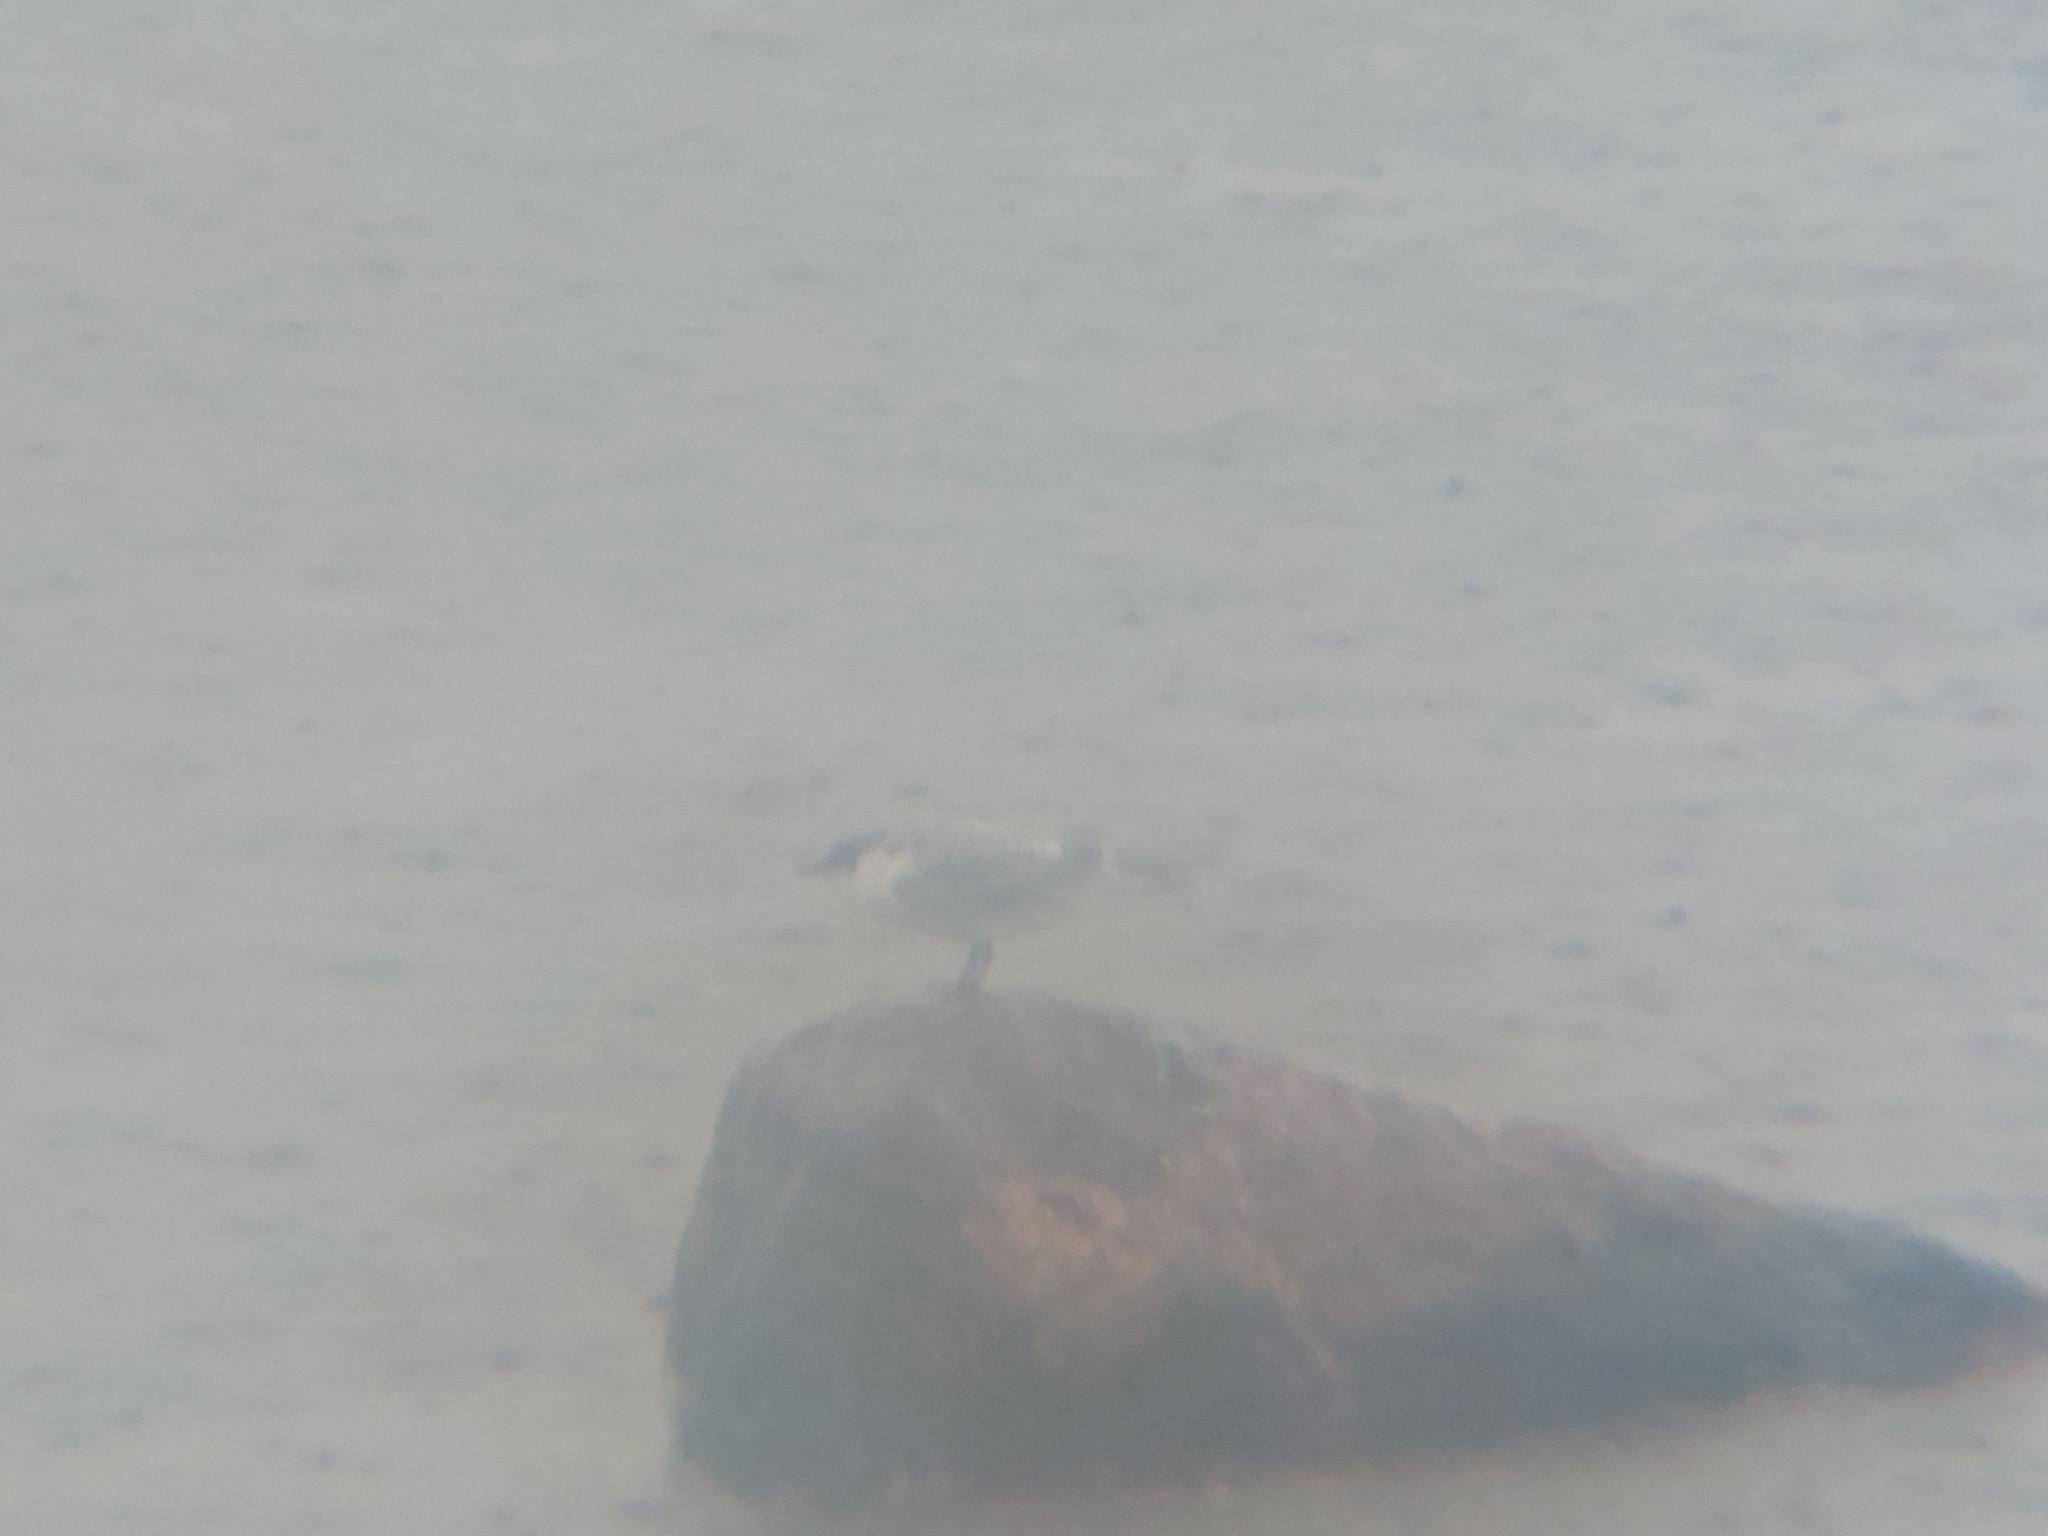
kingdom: Animalia
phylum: Chordata
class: Aves
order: Charadriiformes
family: Laridae
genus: Thalasseus
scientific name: Thalasseus sandvicensis
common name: Sandwich tern
